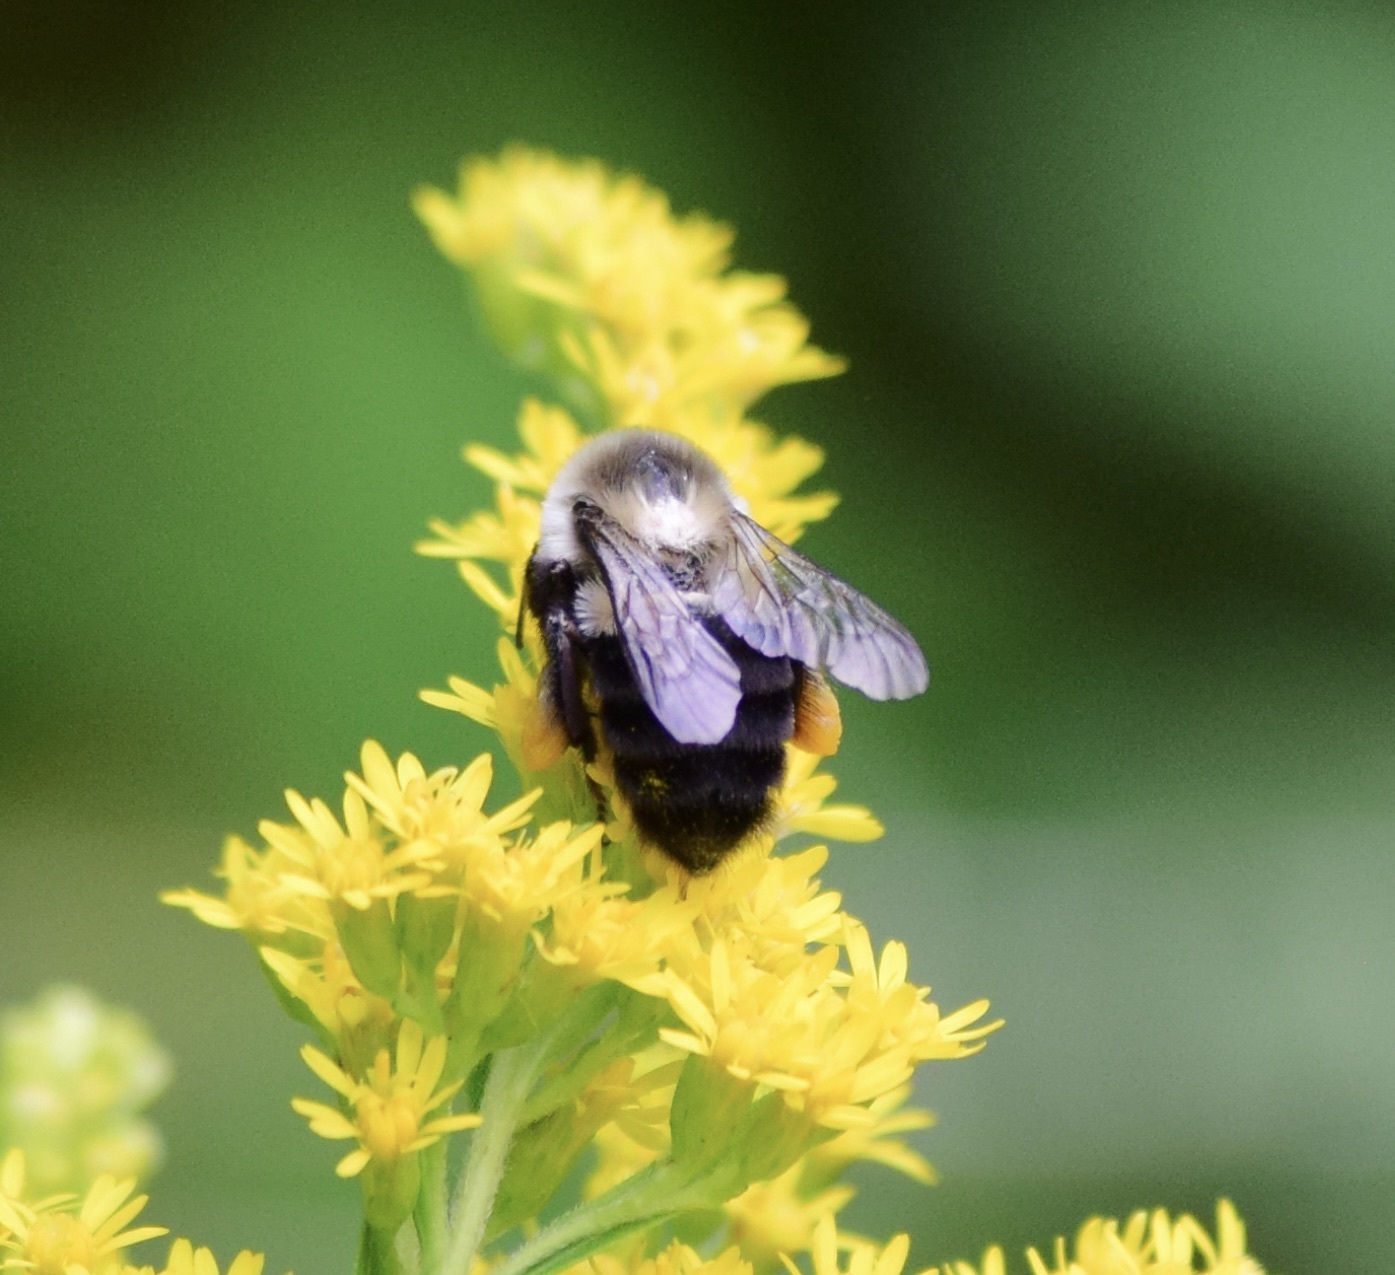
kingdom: Animalia
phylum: Arthropoda
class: Insecta
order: Hymenoptera
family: Apidae
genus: Bombus
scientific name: Bombus impatiens
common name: Common eastern bumble bee
